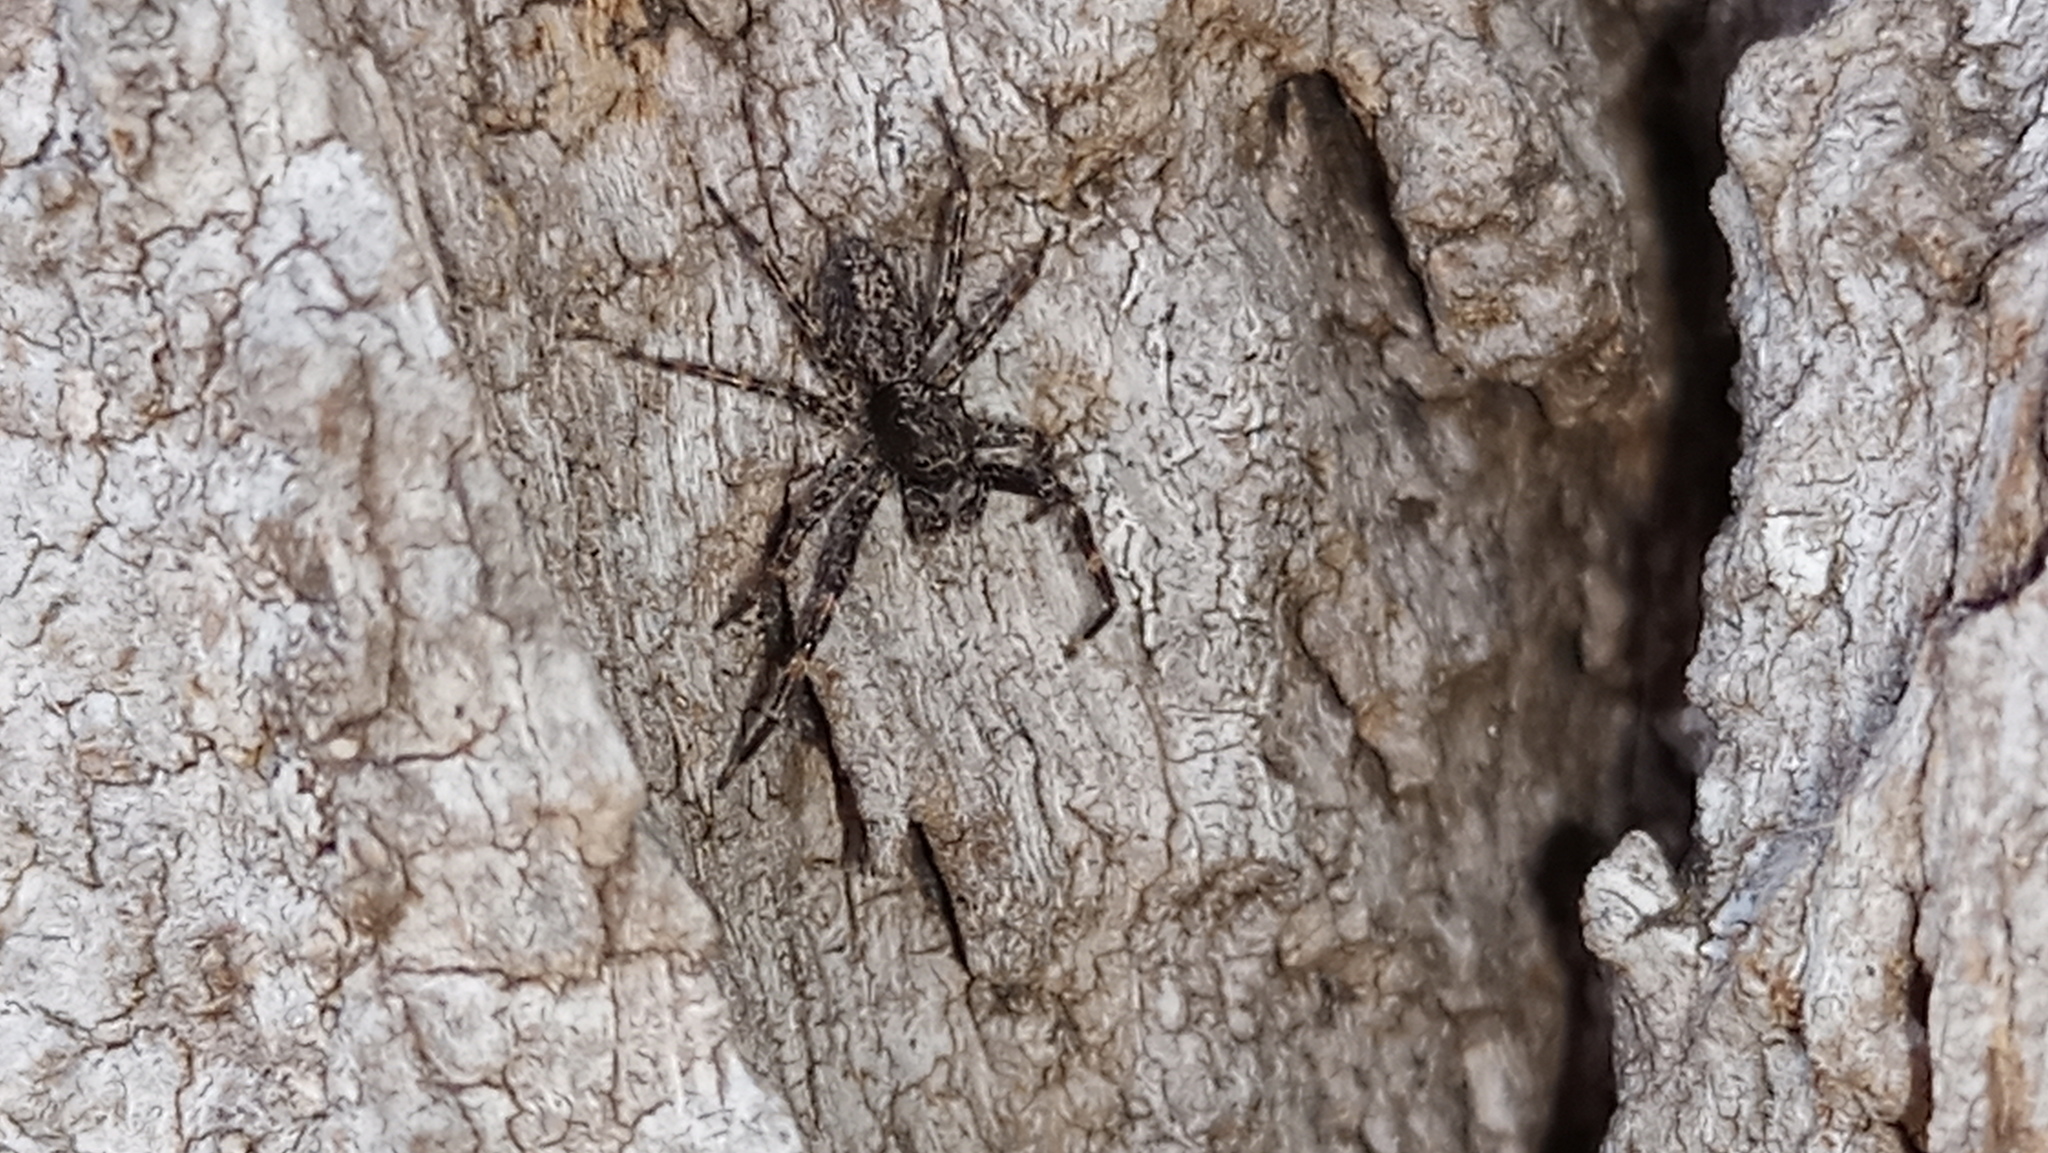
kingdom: Animalia
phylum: Arthropoda
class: Arachnida
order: Araneae
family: Salticidae
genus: Titanattus
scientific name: Titanattus andinus
